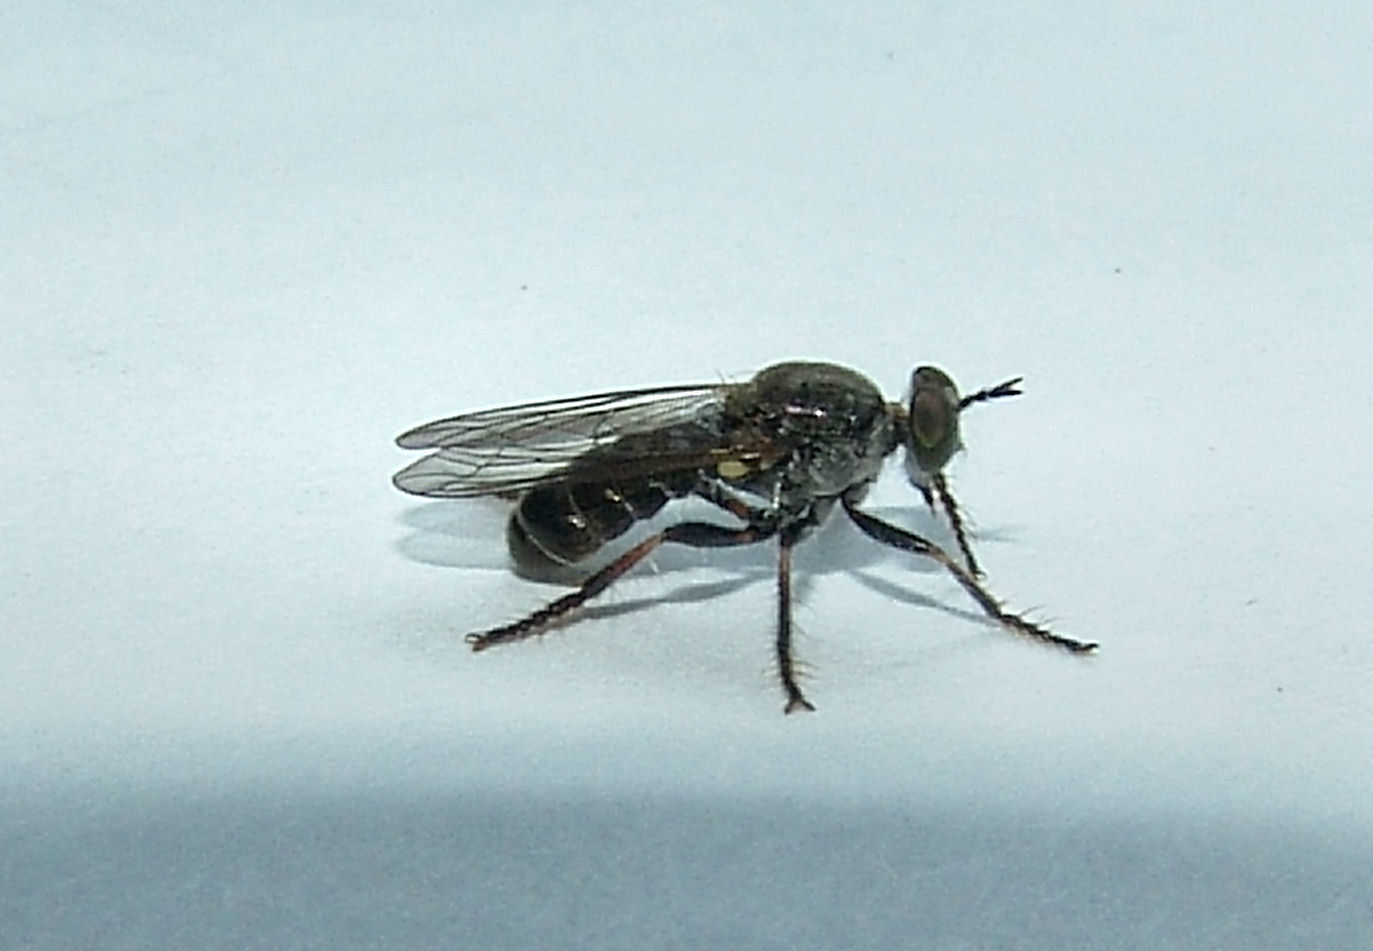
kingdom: Animalia
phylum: Arthropoda
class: Insecta
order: Diptera
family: Asilidae
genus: Atomosia
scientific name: Atomosia puella
